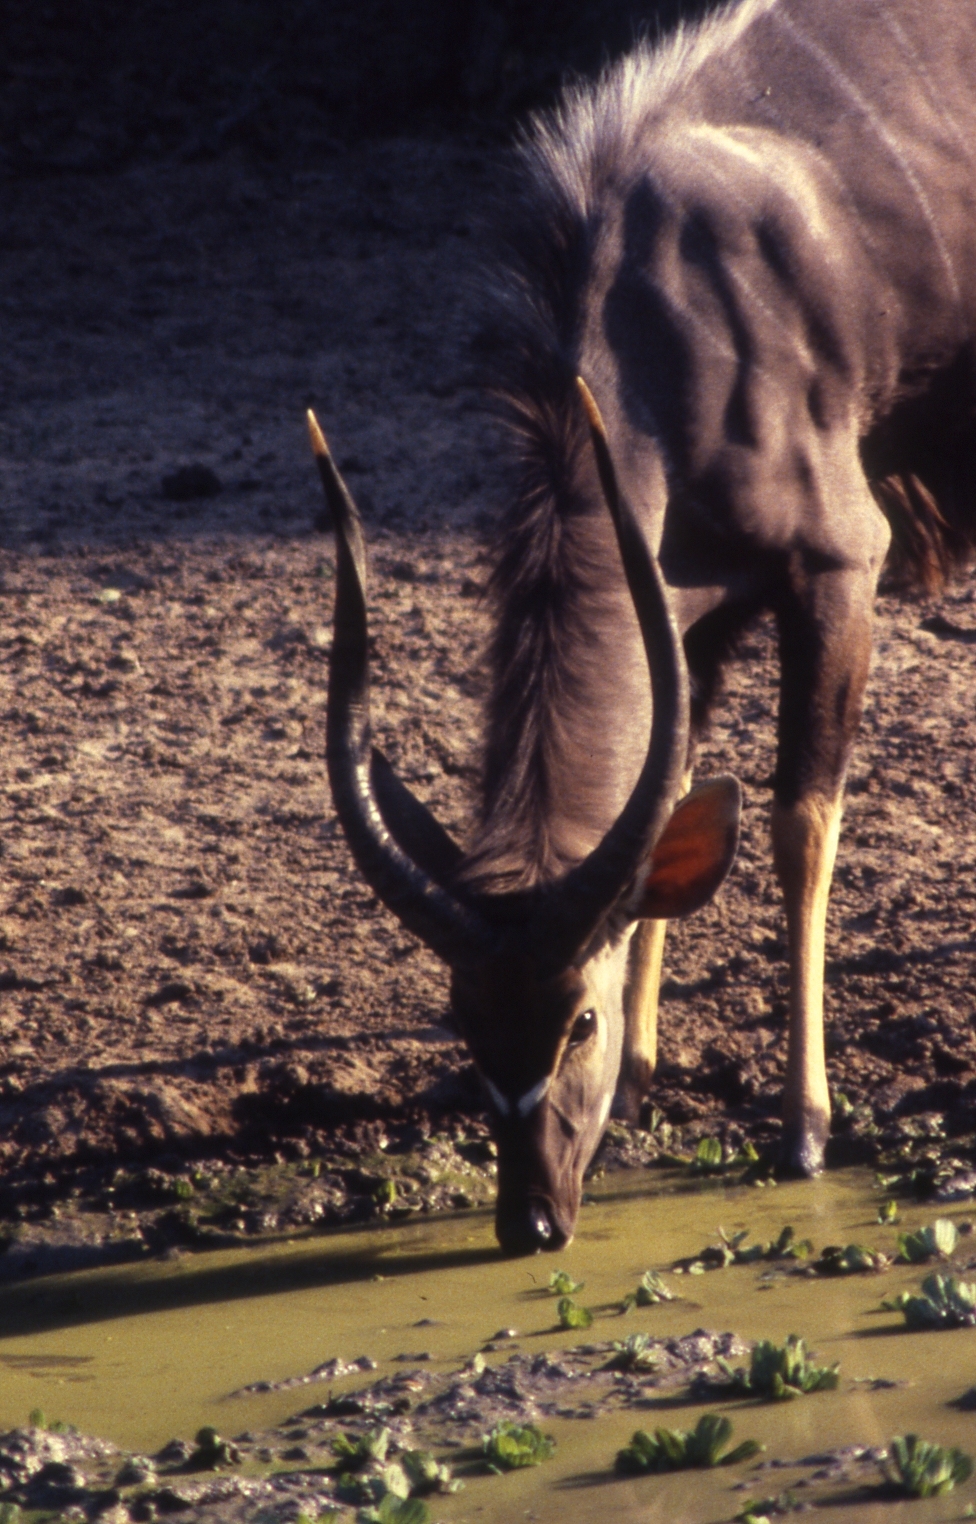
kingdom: Animalia
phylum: Chordata
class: Mammalia
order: Artiodactyla
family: Bovidae
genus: Tragelaphus
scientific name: Tragelaphus angasii
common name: Nyala
